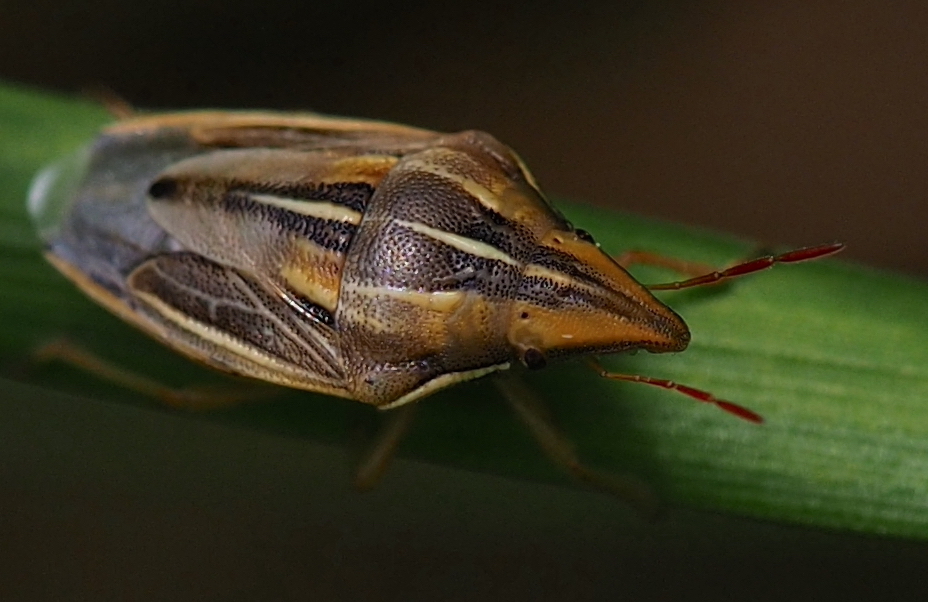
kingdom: Animalia
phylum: Arthropoda
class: Insecta
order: Hemiptera
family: Pentatomidae
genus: Aelia
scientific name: Aelia rostrata
